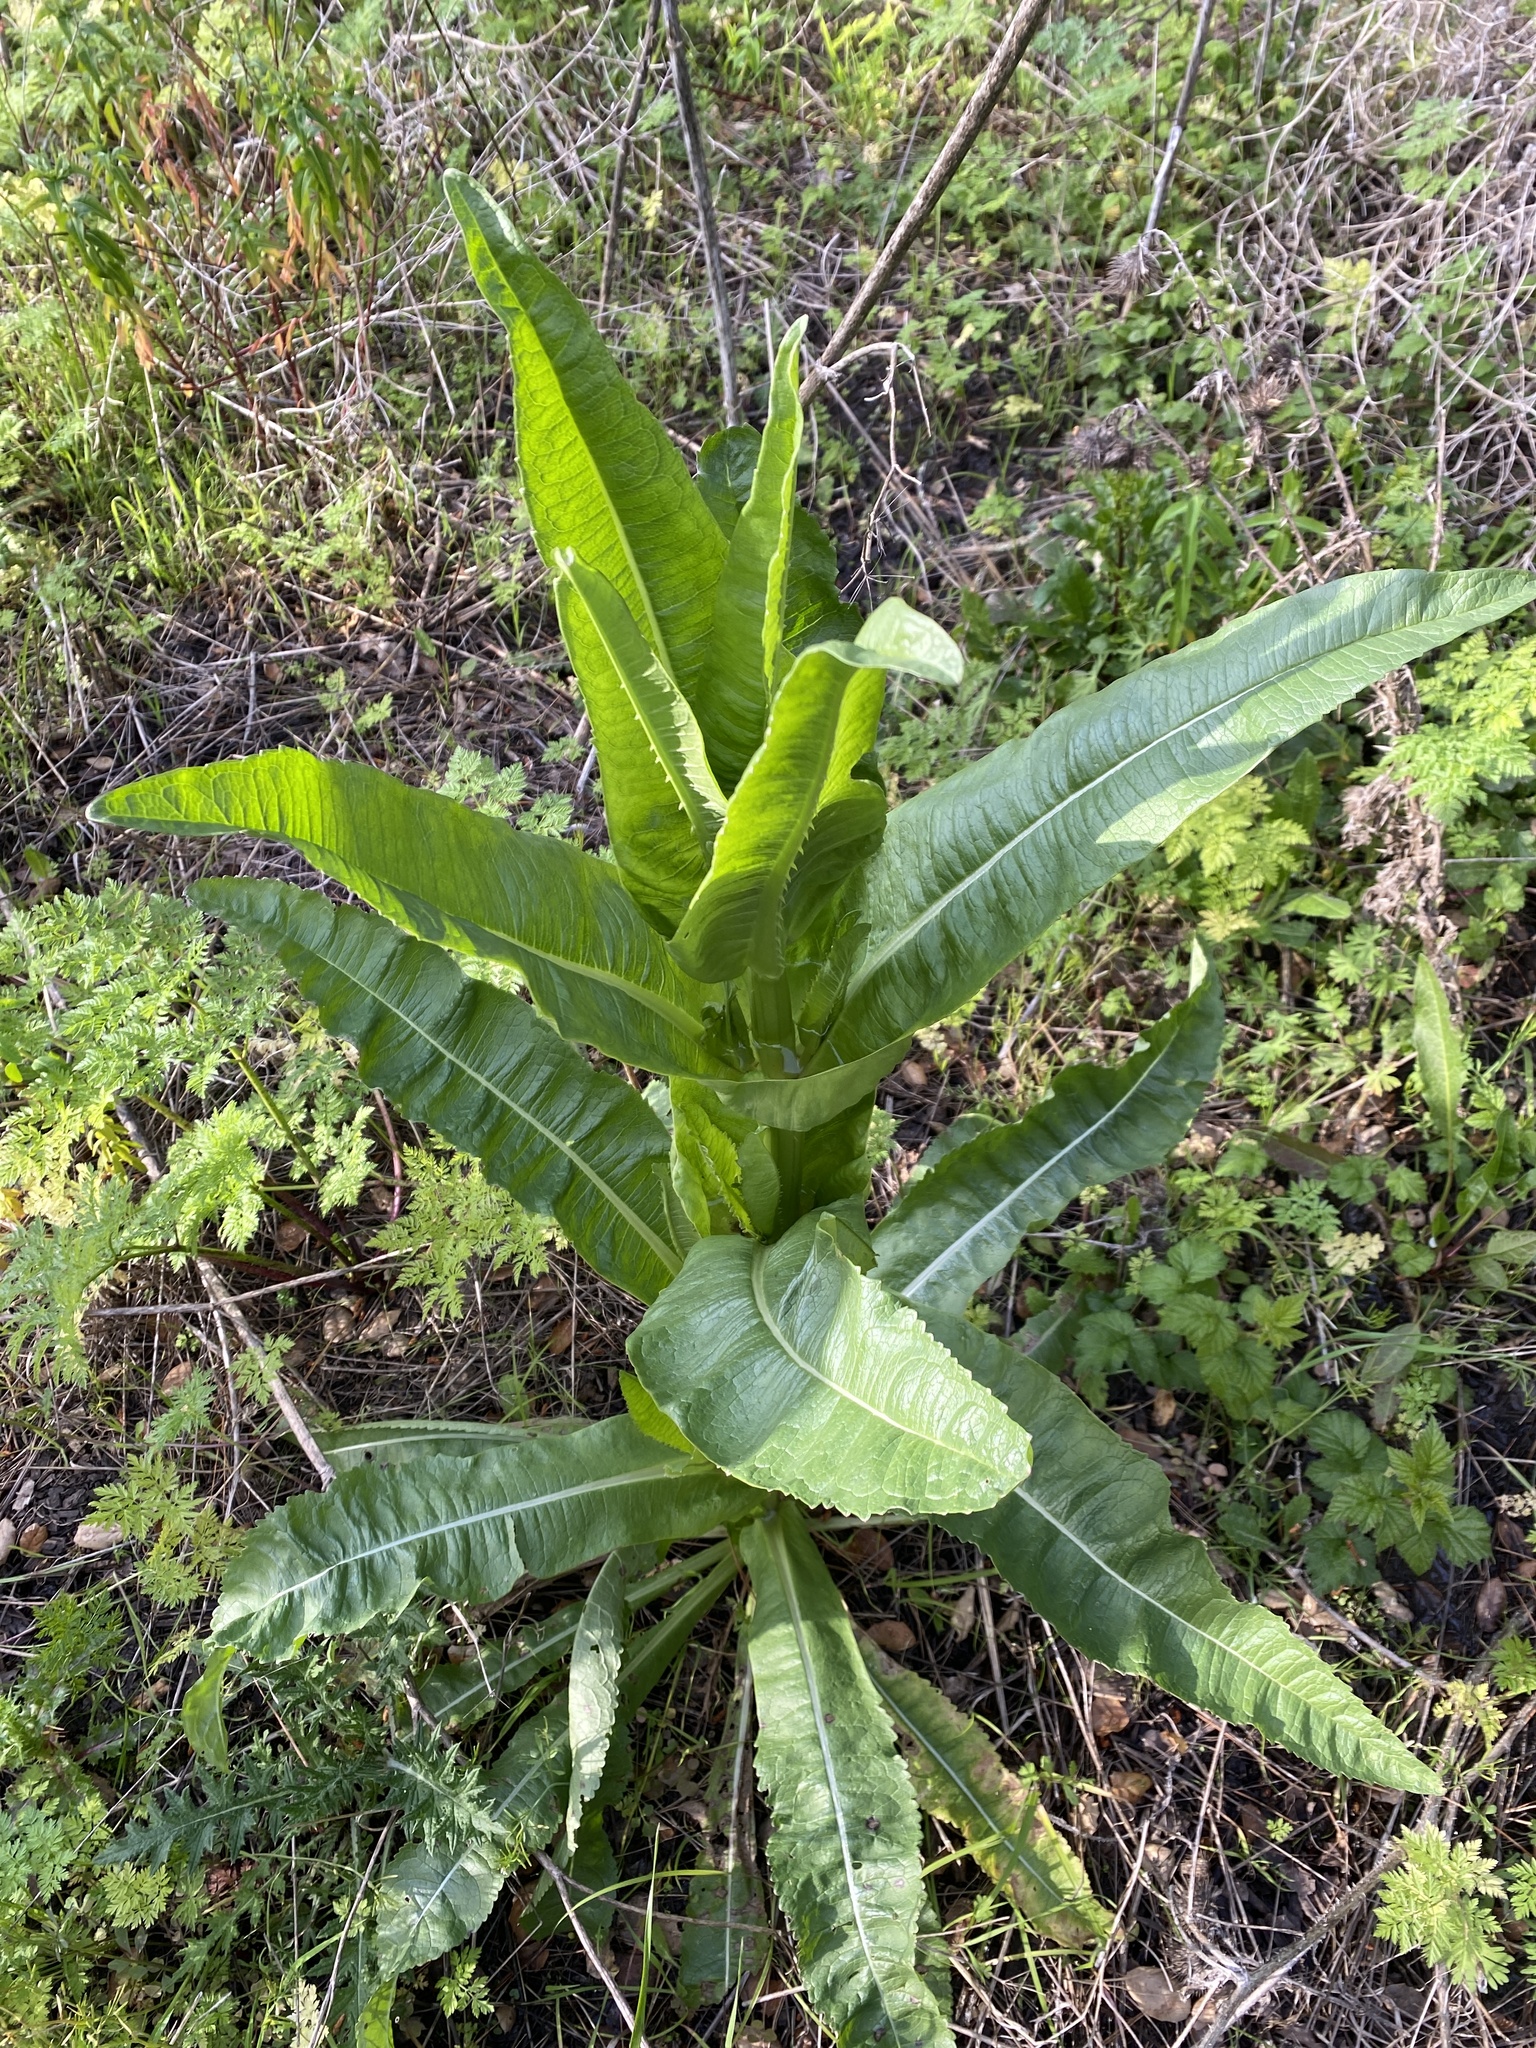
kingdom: Plantae
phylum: Tracheophyta
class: Magnoliopsida
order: Dipsacales
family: Caprifoliaceae
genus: Dipsacus
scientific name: Dipsacus sativus
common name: Fuller's teasel
